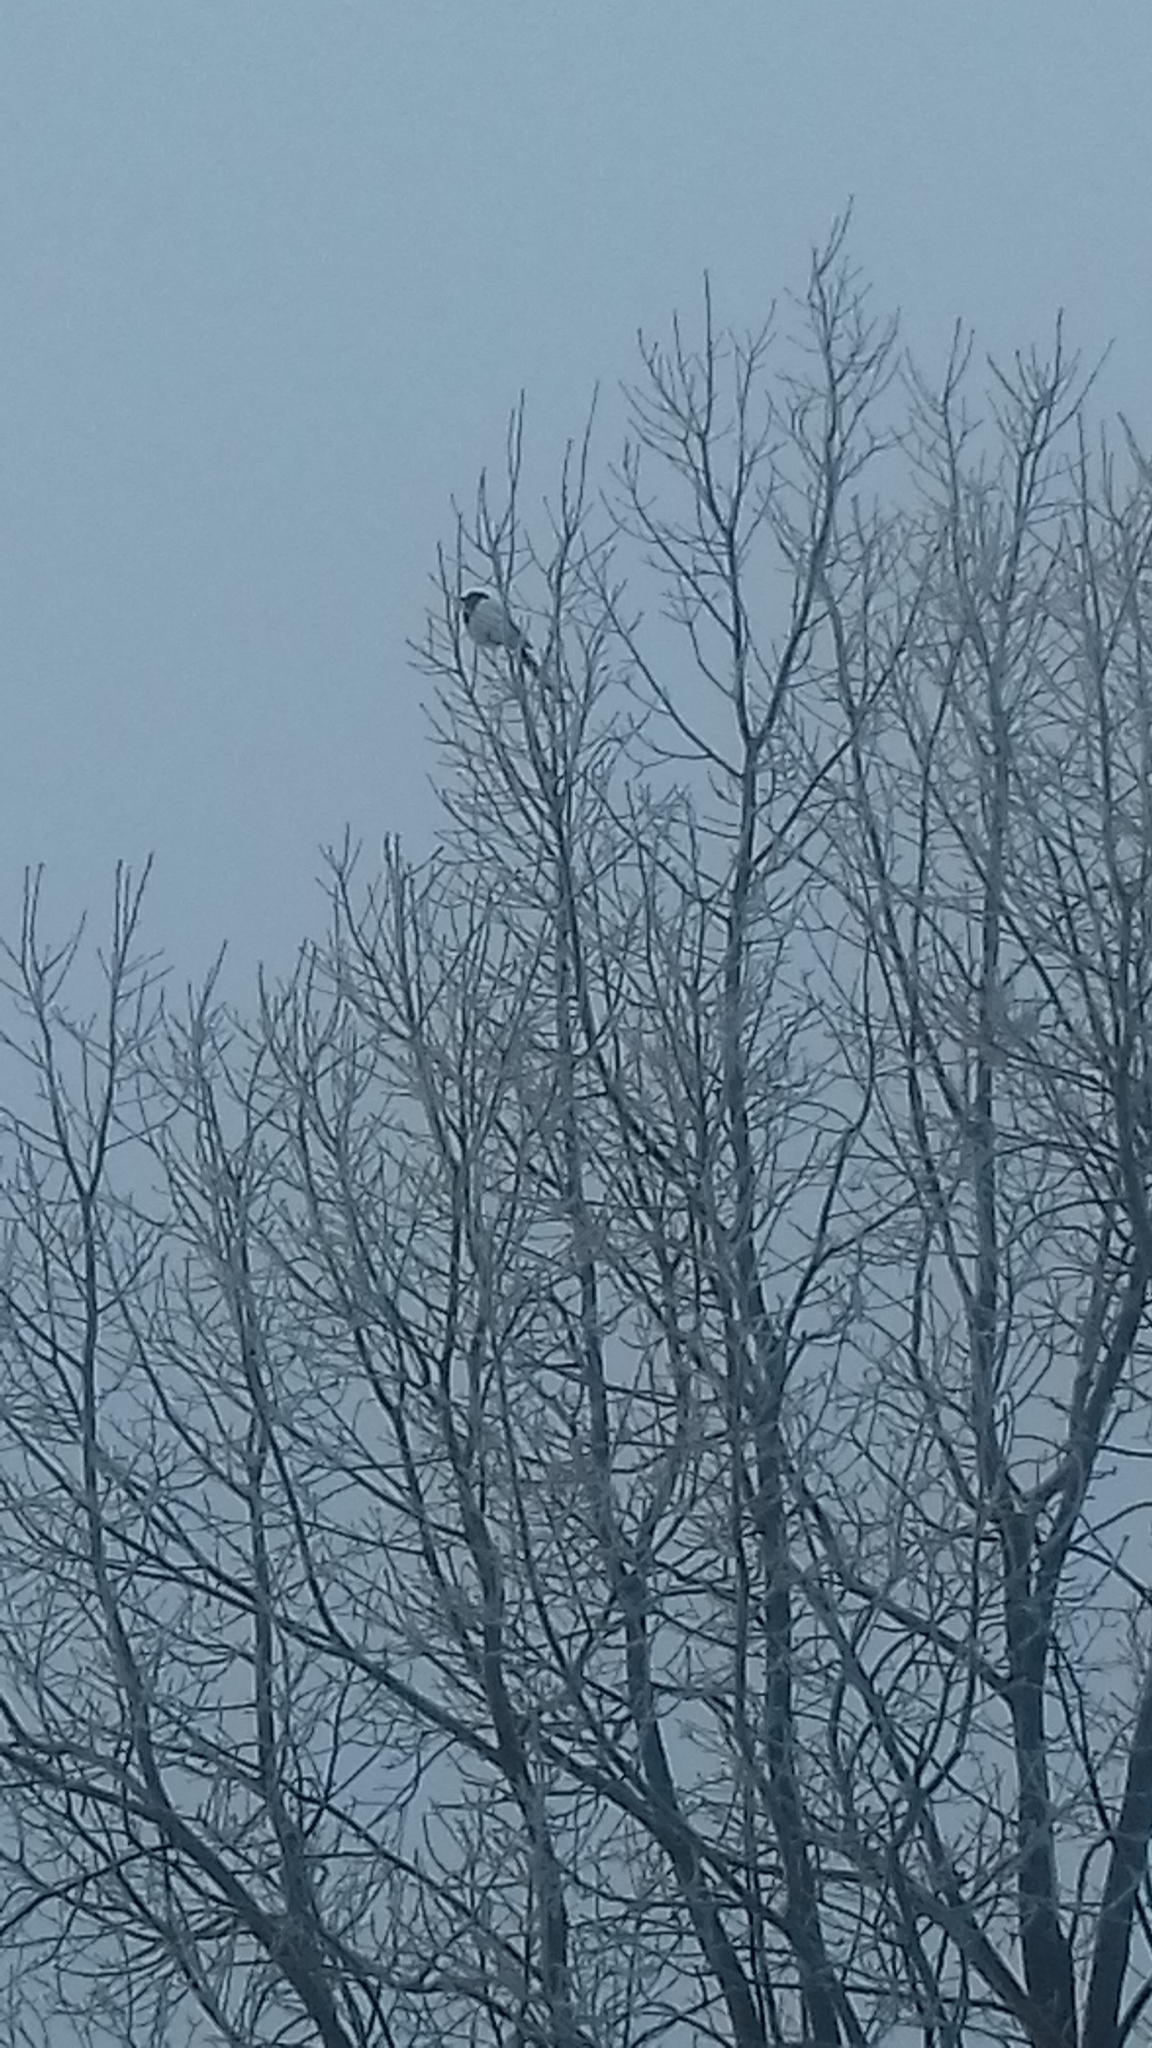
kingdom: Animalia
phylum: Chordata
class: Aves
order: Passeriformes
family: Corvidae
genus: Pica
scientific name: Pica pica
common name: Eurasian magpie
